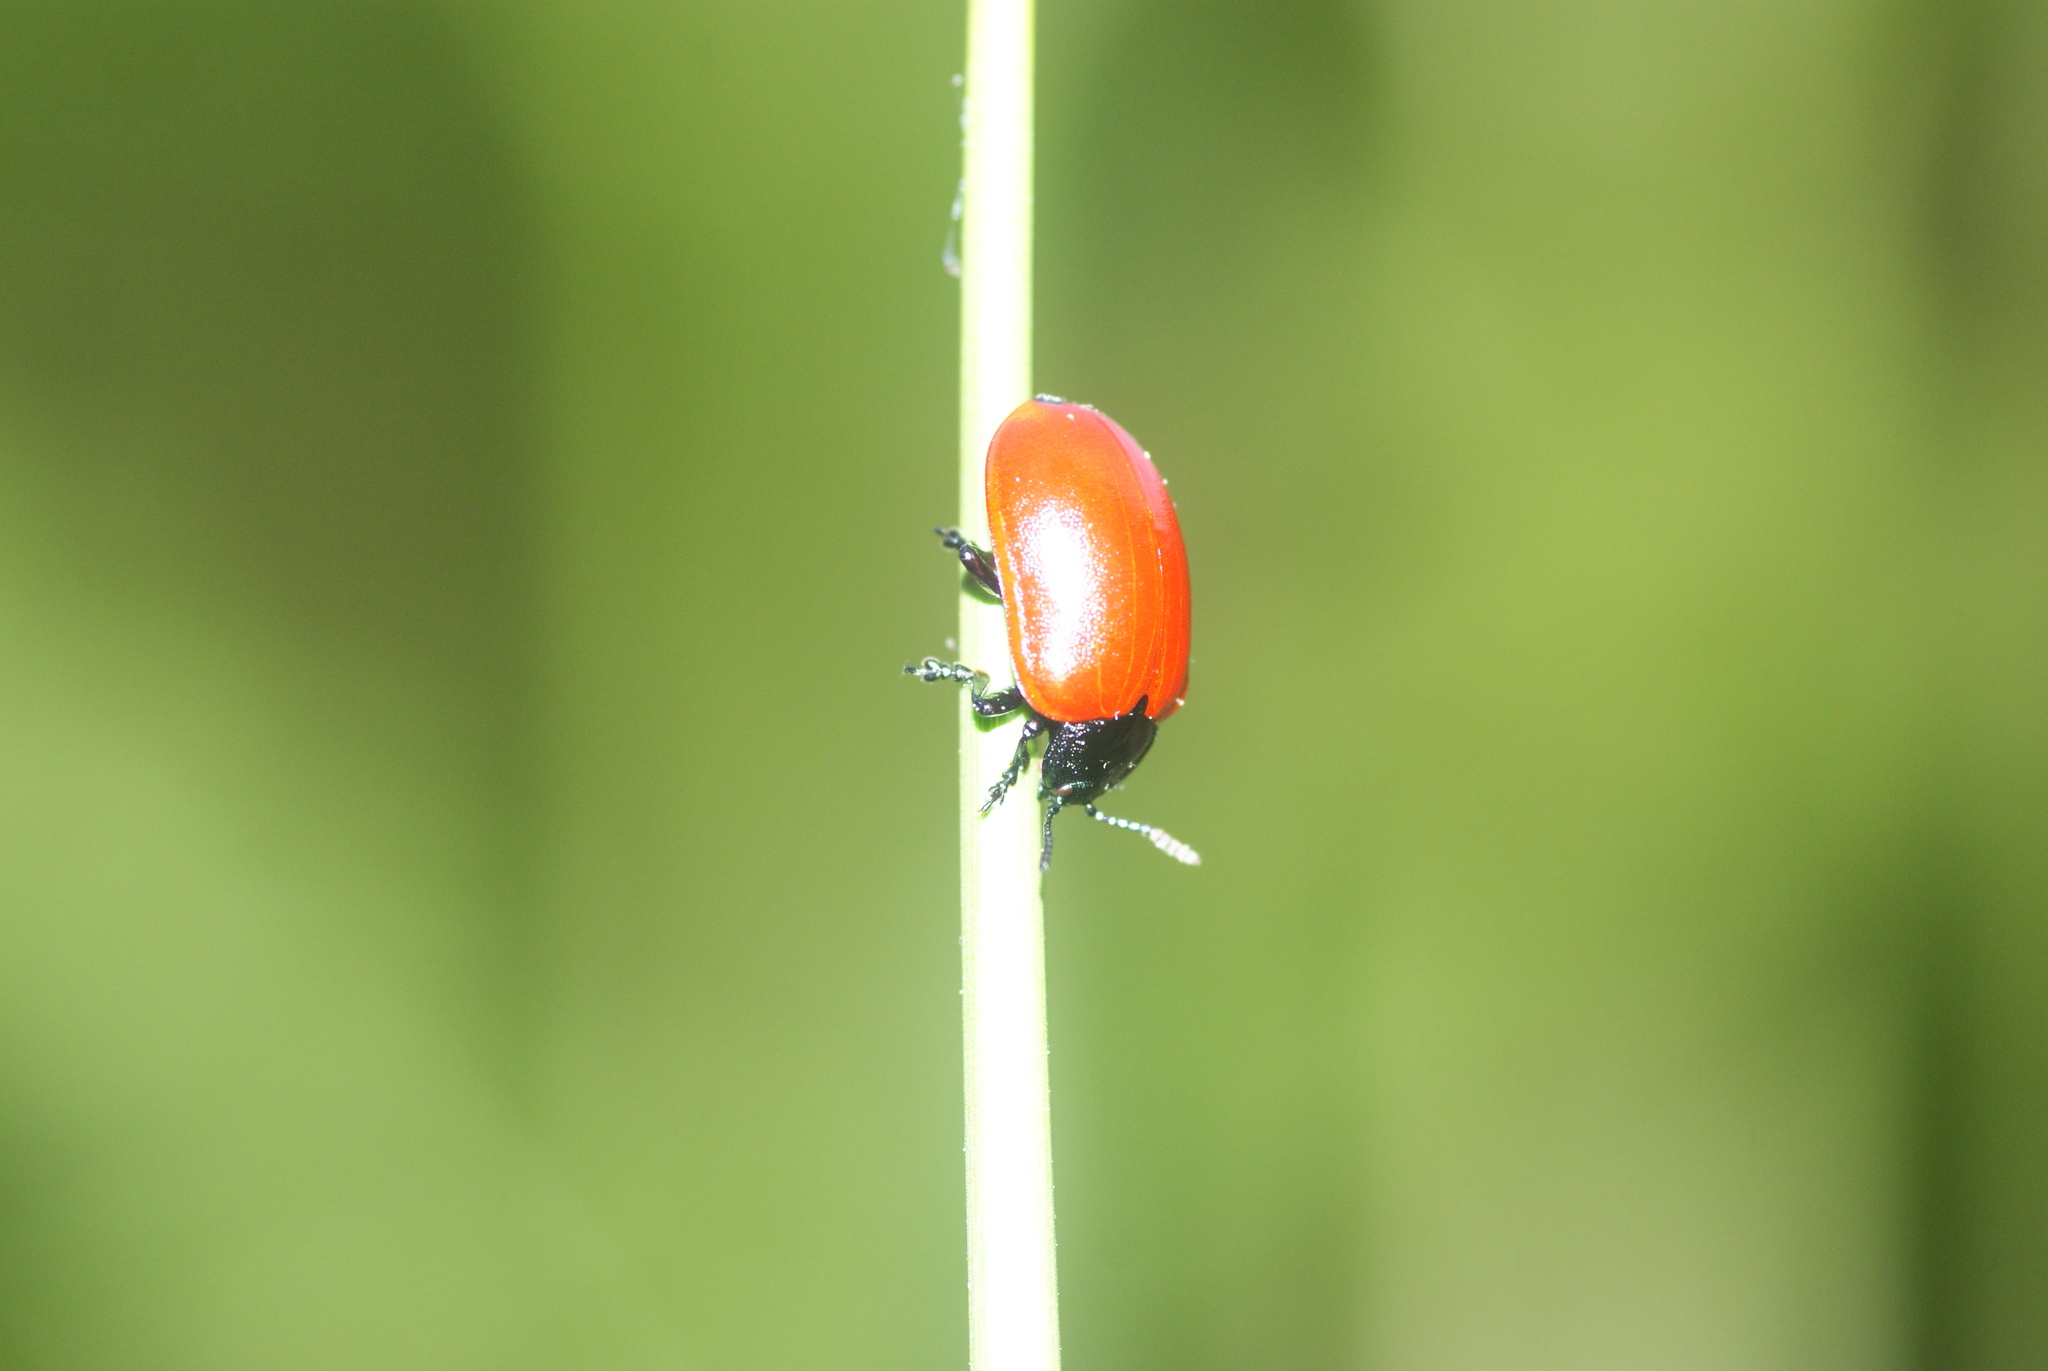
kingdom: Animalia
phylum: Arthropoda
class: Insecta
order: Coleoptera
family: Chrysomelidae
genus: Chrysomela
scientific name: Chrysomela populi
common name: Red poplar leaf beetle
